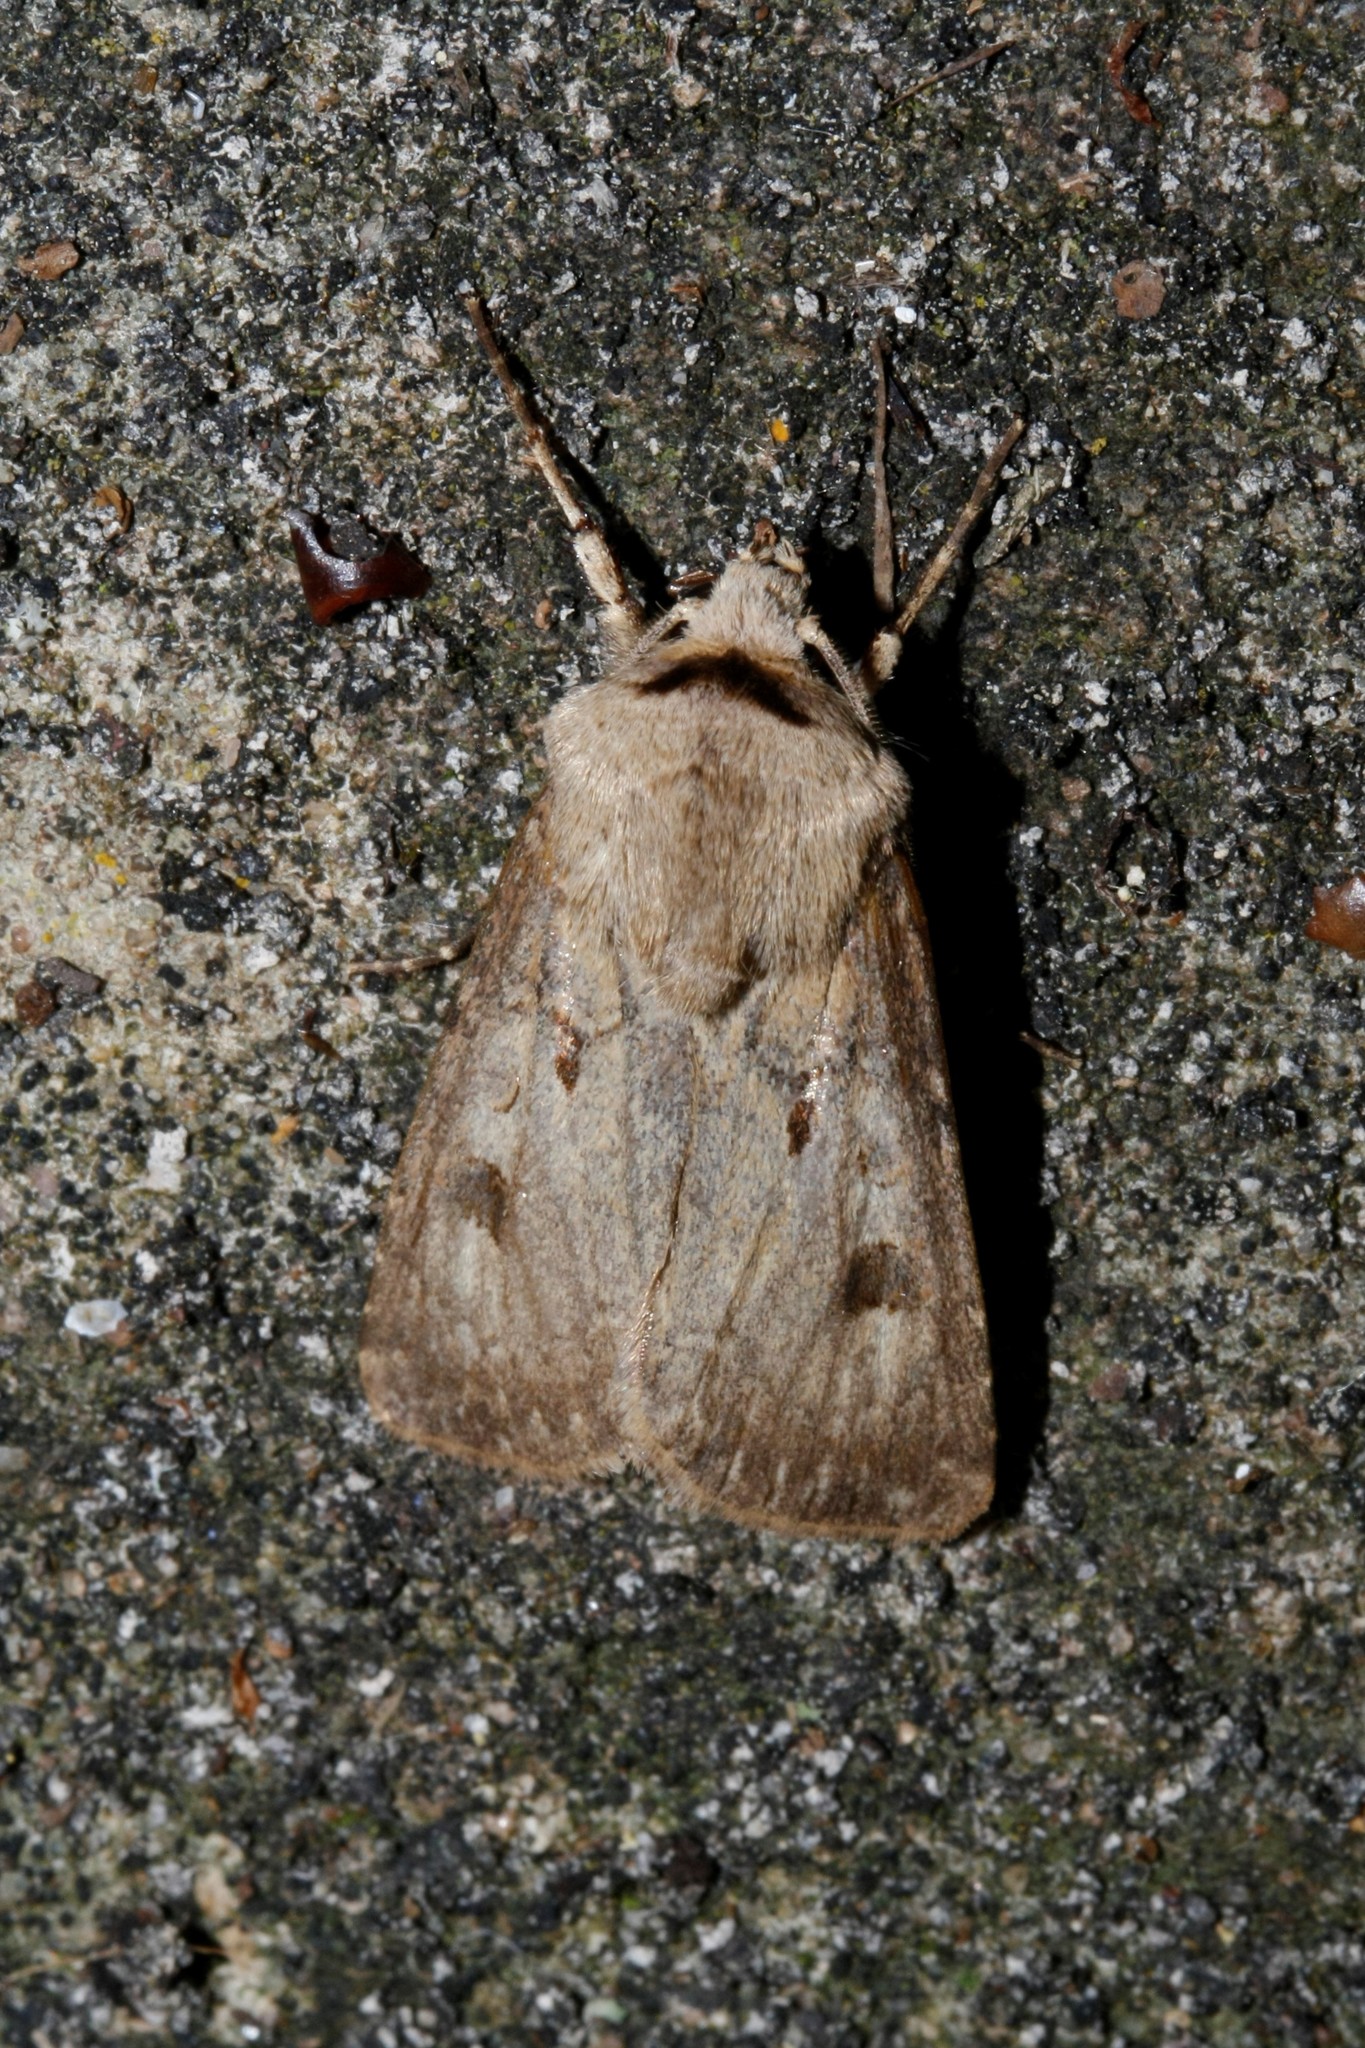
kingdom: Animalia
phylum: Arthropoda
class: Insecta
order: Lepidoptera
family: Noctuidae
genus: Agrotis
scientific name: Agrotis exclamationis
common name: Heart and dart
